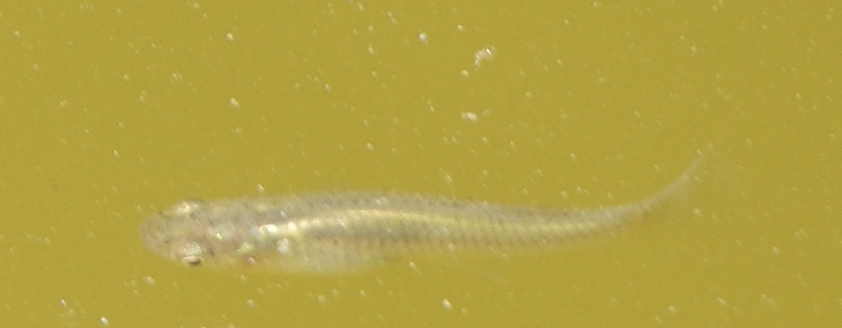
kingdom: Animalia
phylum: Chordata
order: Cyprinodontiformes
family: Poeciliidae
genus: Gambusia
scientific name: Gambusia affinis
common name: Mosquitofish
